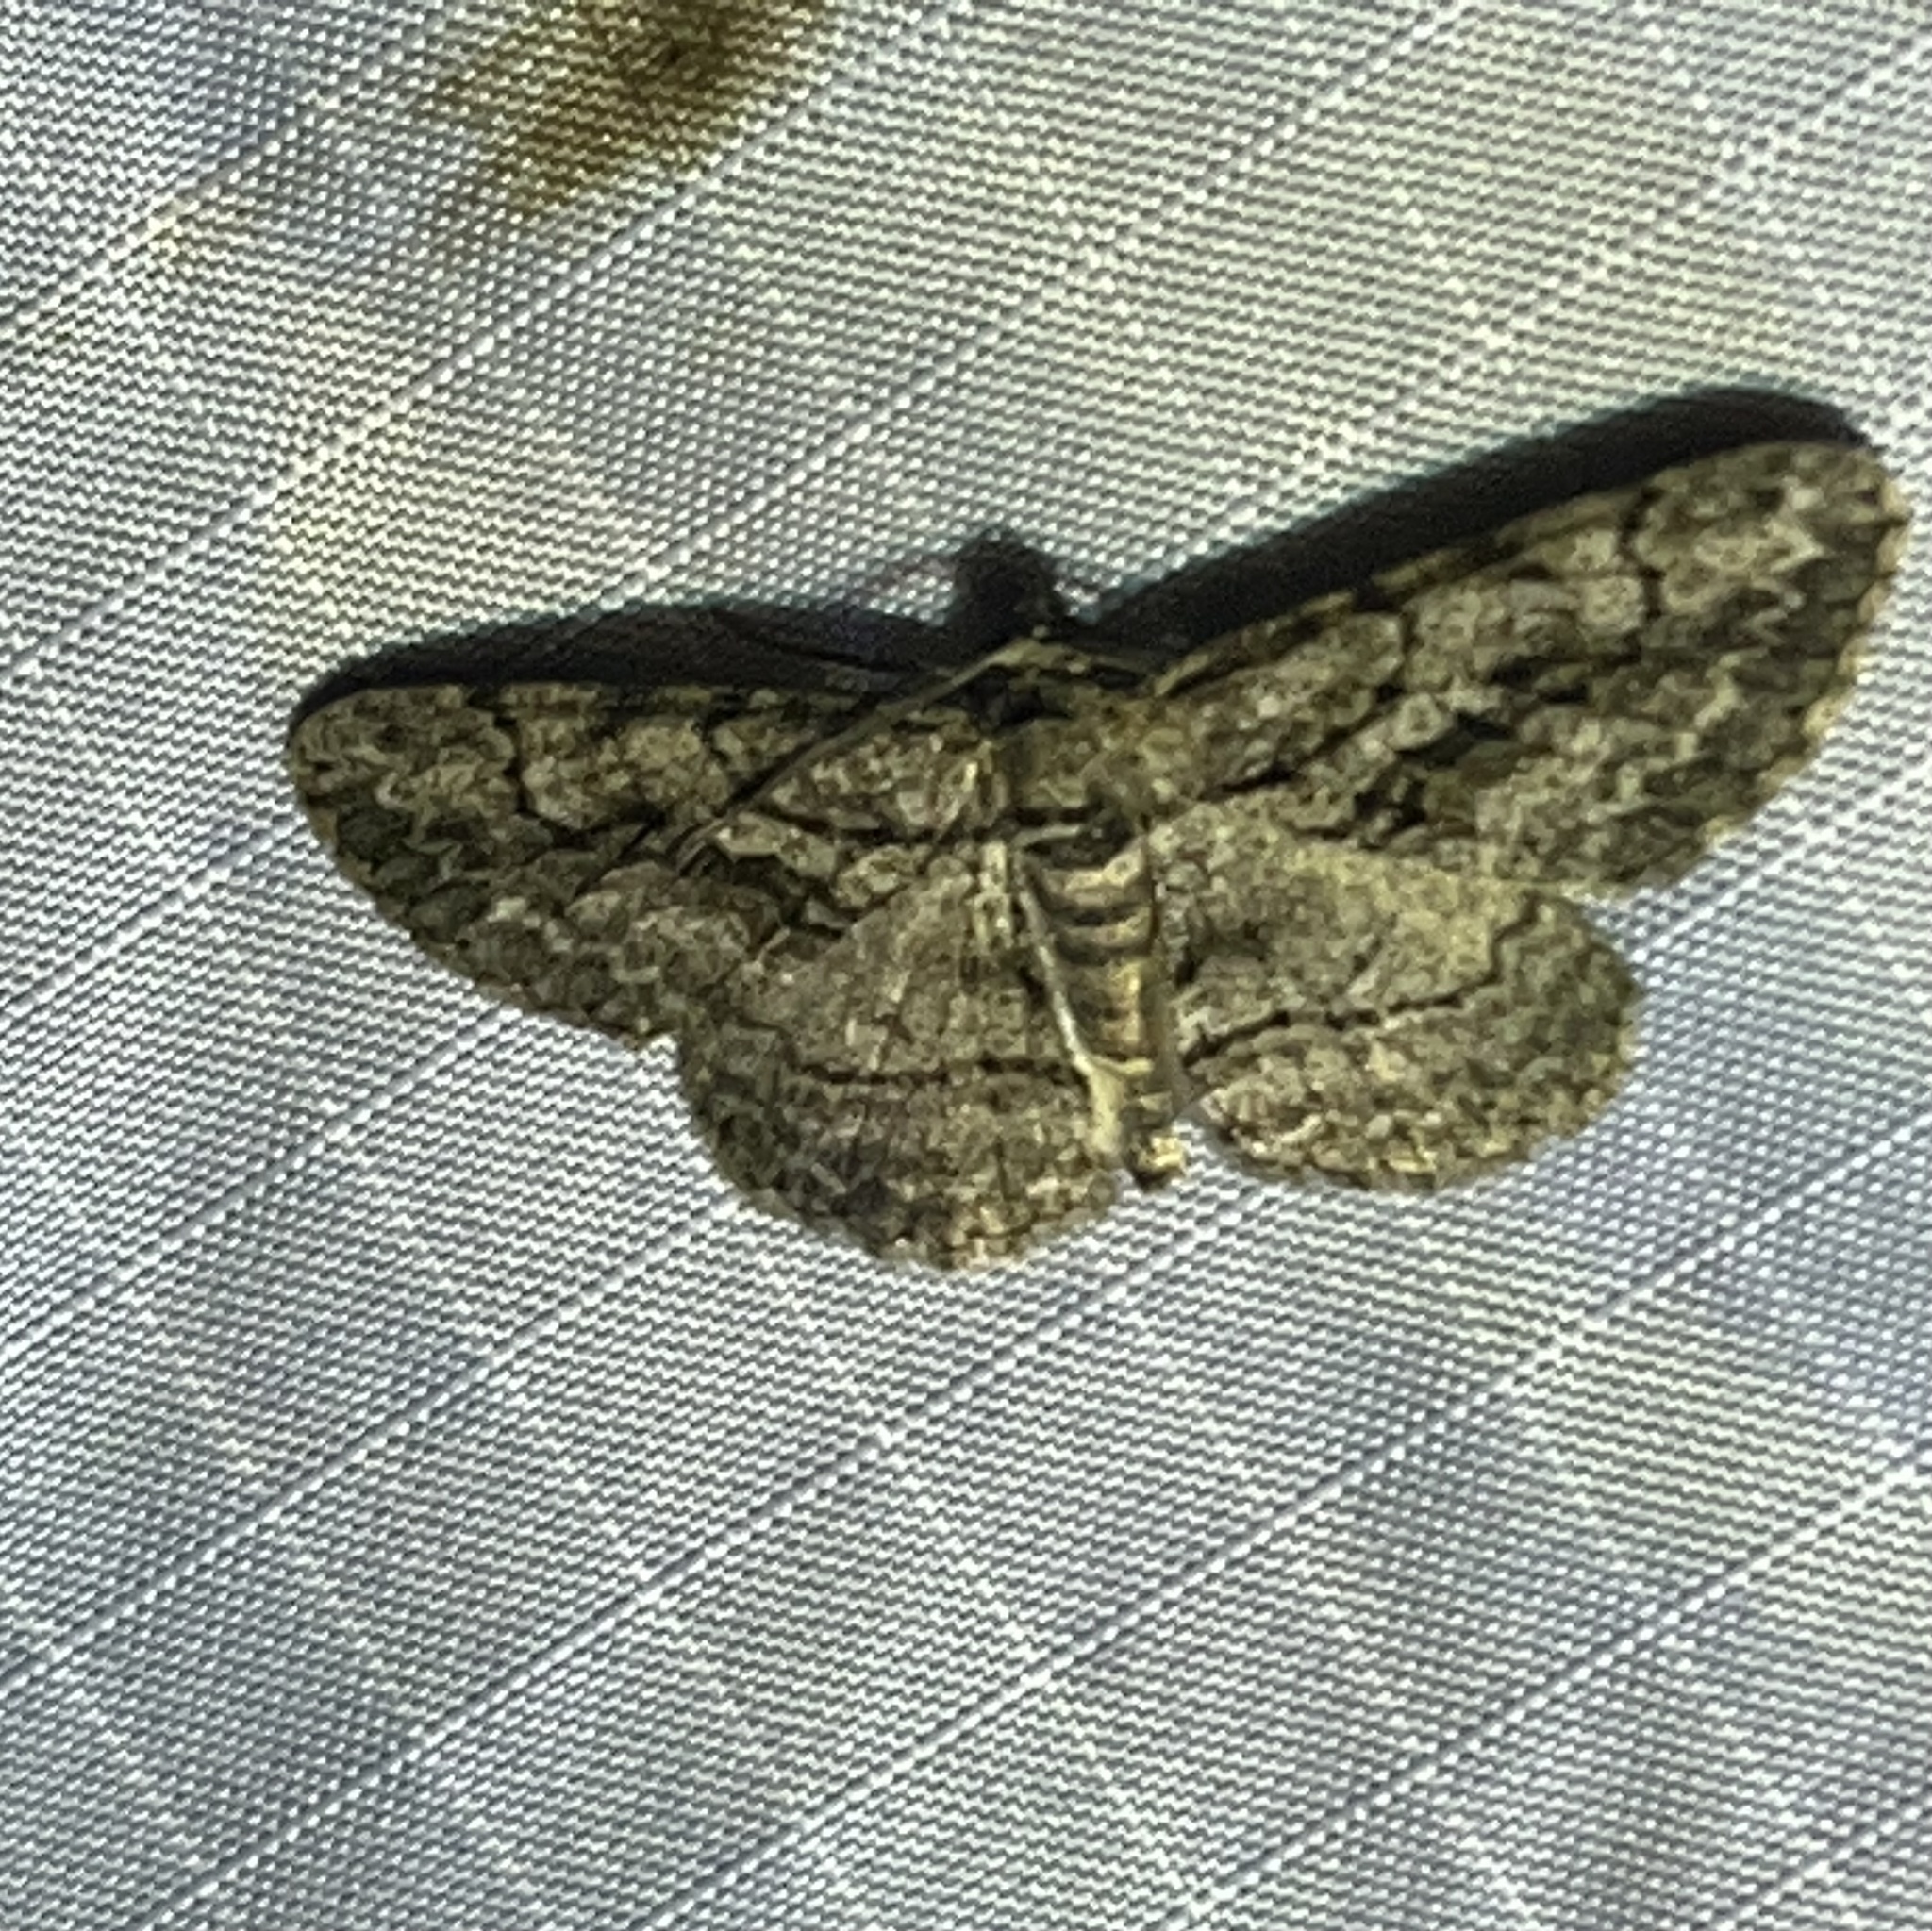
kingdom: Animalia
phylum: Arthropoda
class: Insecta
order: Lepidoptera
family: Geometridae
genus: Anavitrinella
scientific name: Anavitrinella pampinaria
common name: Common gray
